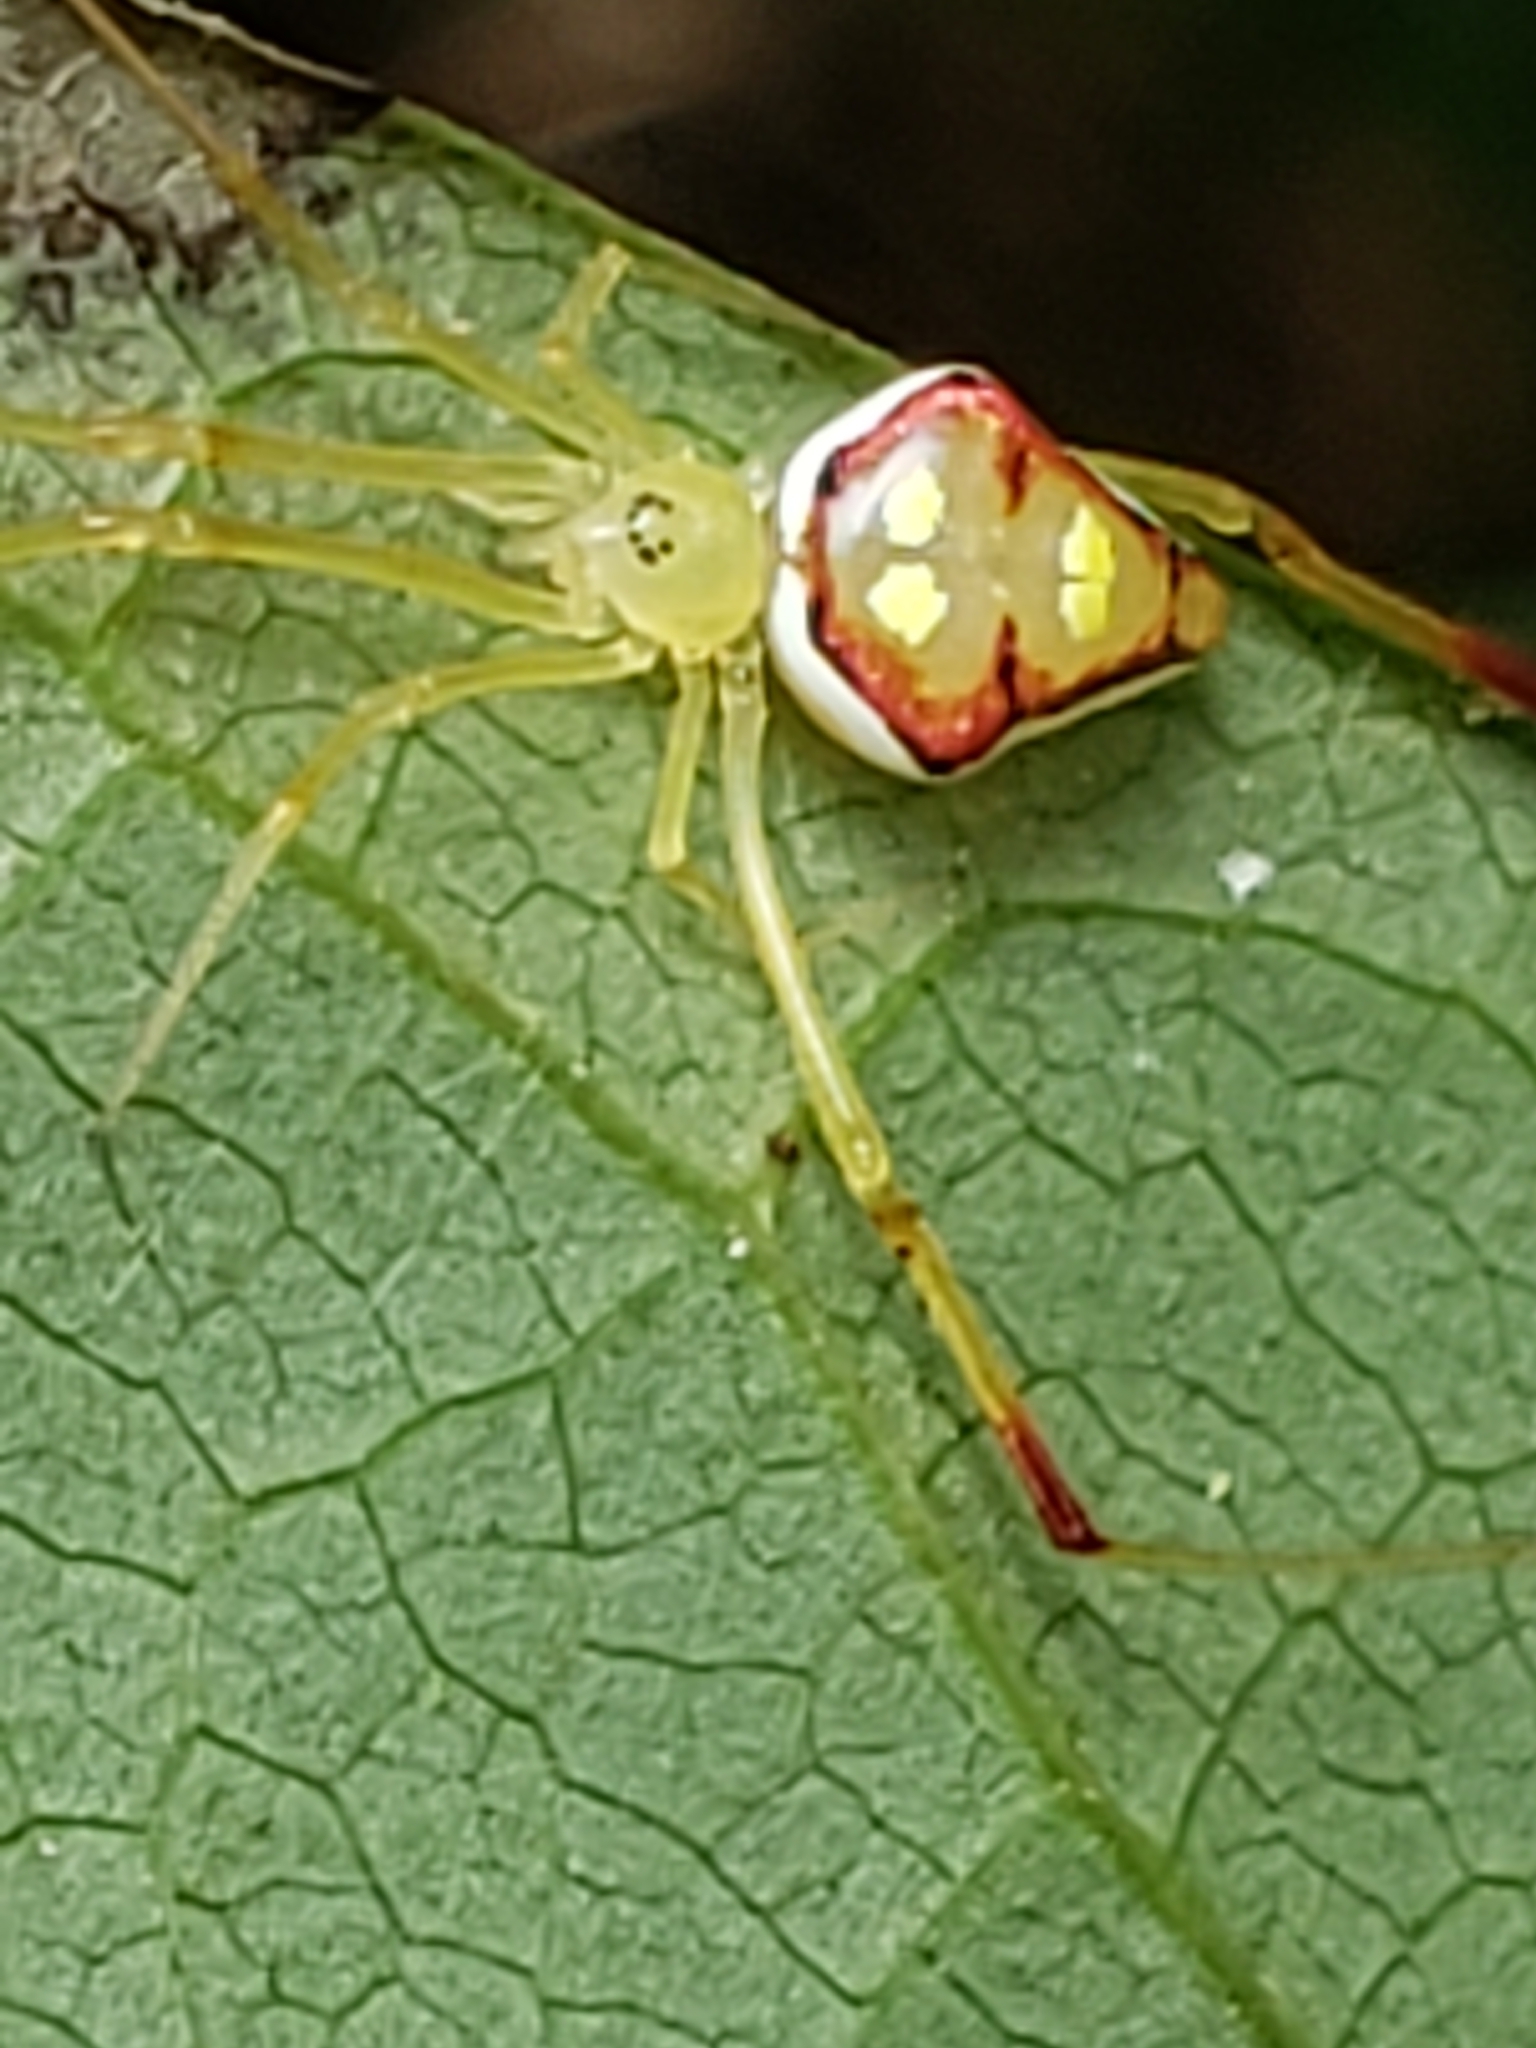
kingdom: Animalia
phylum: Arthropoda
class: Arachnida
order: Araneae
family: Theridiidae
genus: Spintharus
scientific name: Spintharus flavidus
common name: Cobweb spiders
